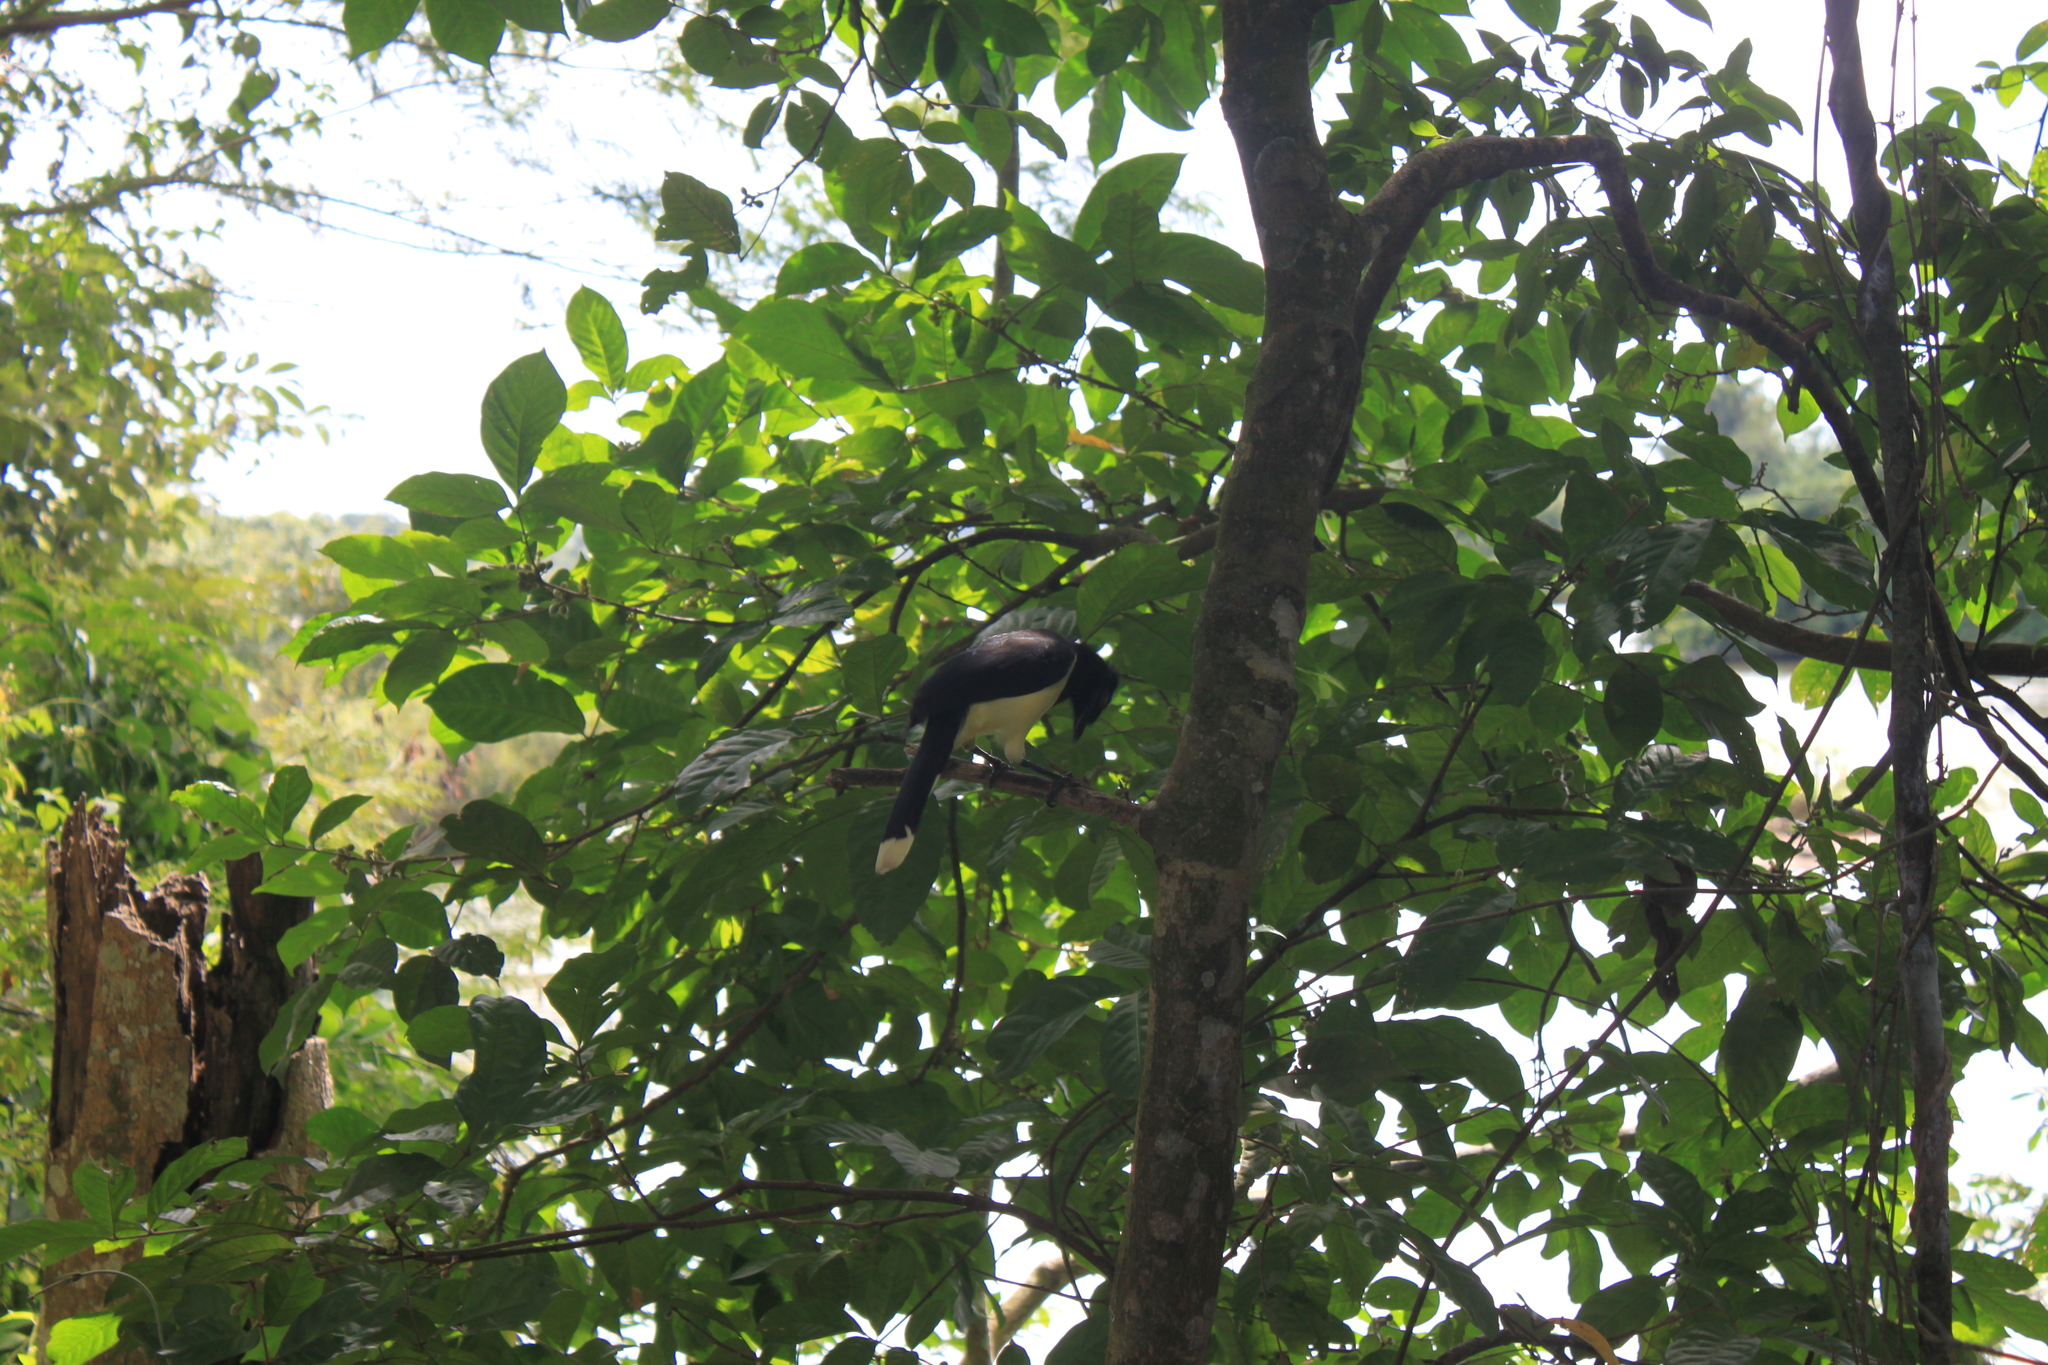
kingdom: Animalia
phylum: Chordata
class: Aves
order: Passeriformes
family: Corvidae
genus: Cyanocorax
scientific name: Cyanocorax chrysops
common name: Plush-crested jay
